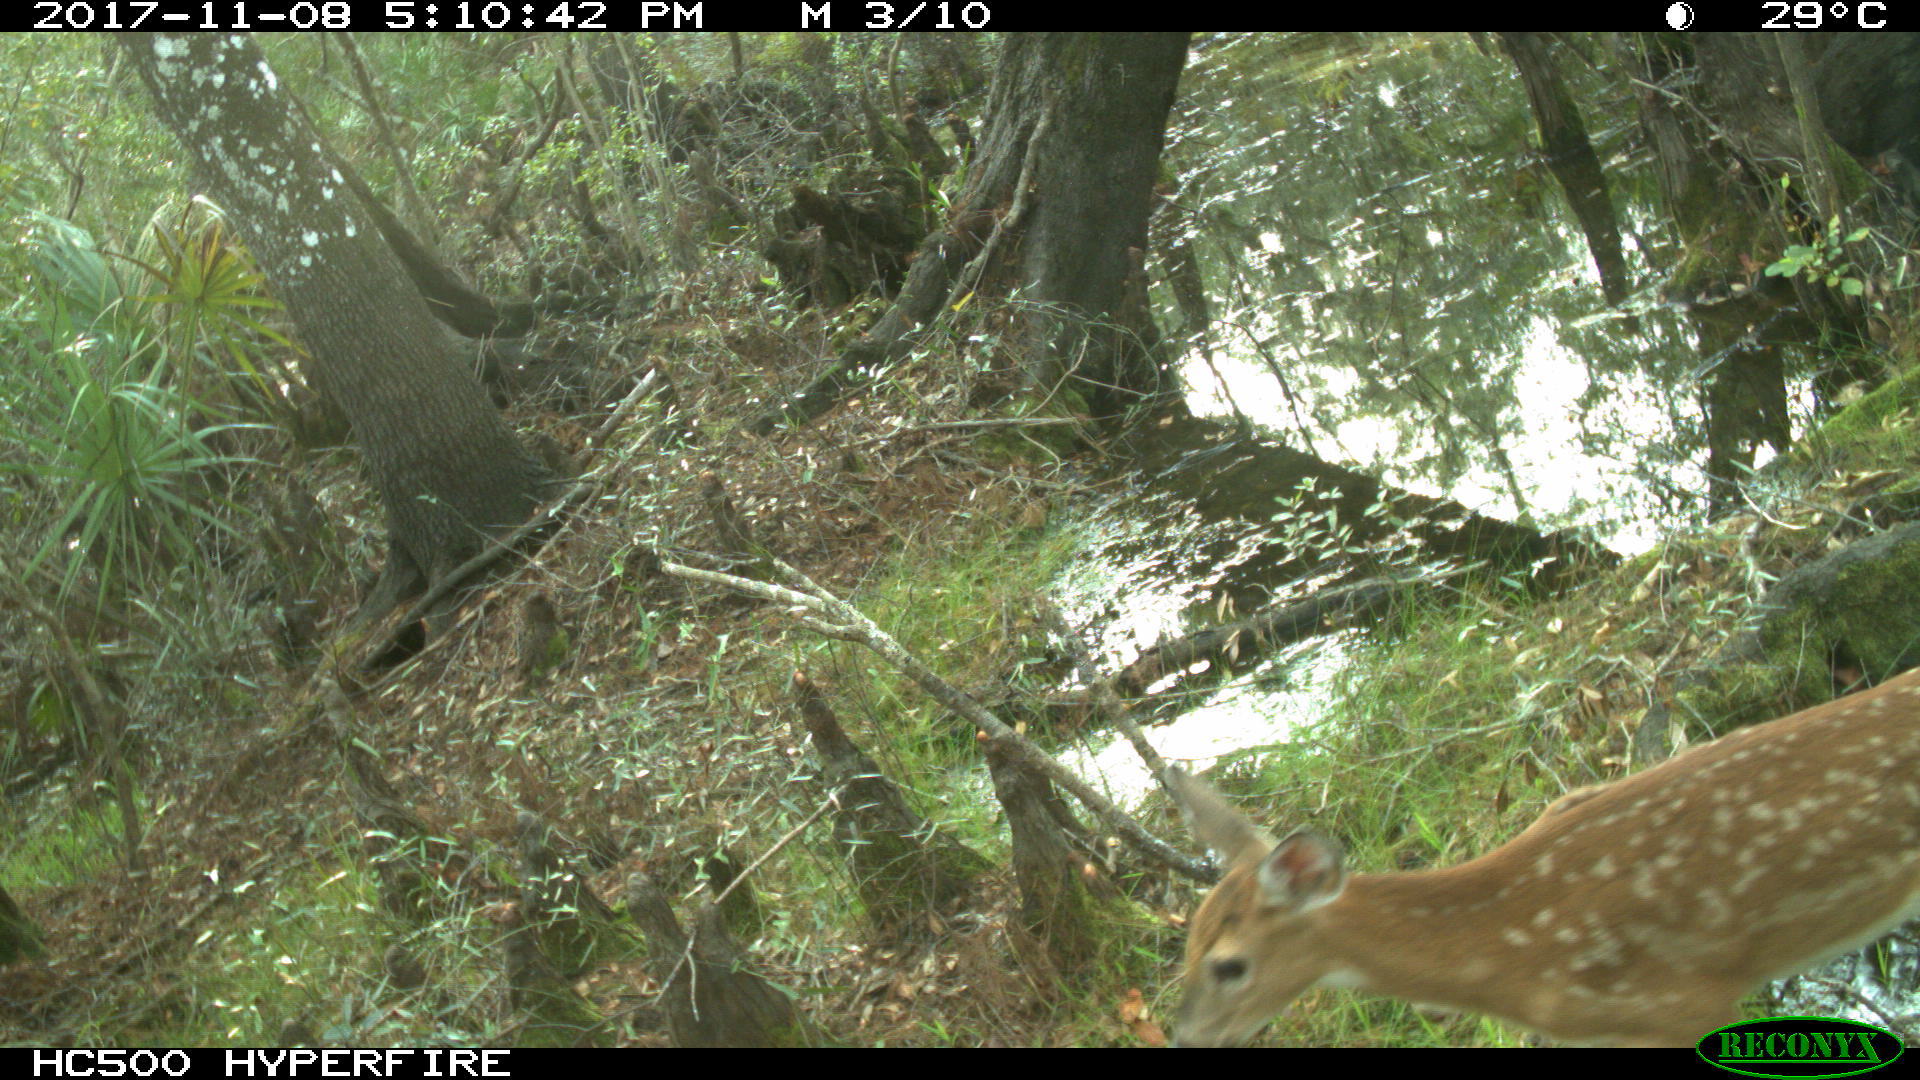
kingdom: Animalia
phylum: Chordata
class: Mammalia
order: Artiodactyla
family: Cervidae
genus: Odocoileus
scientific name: Odocoileus virginianus
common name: White-tailed deer
